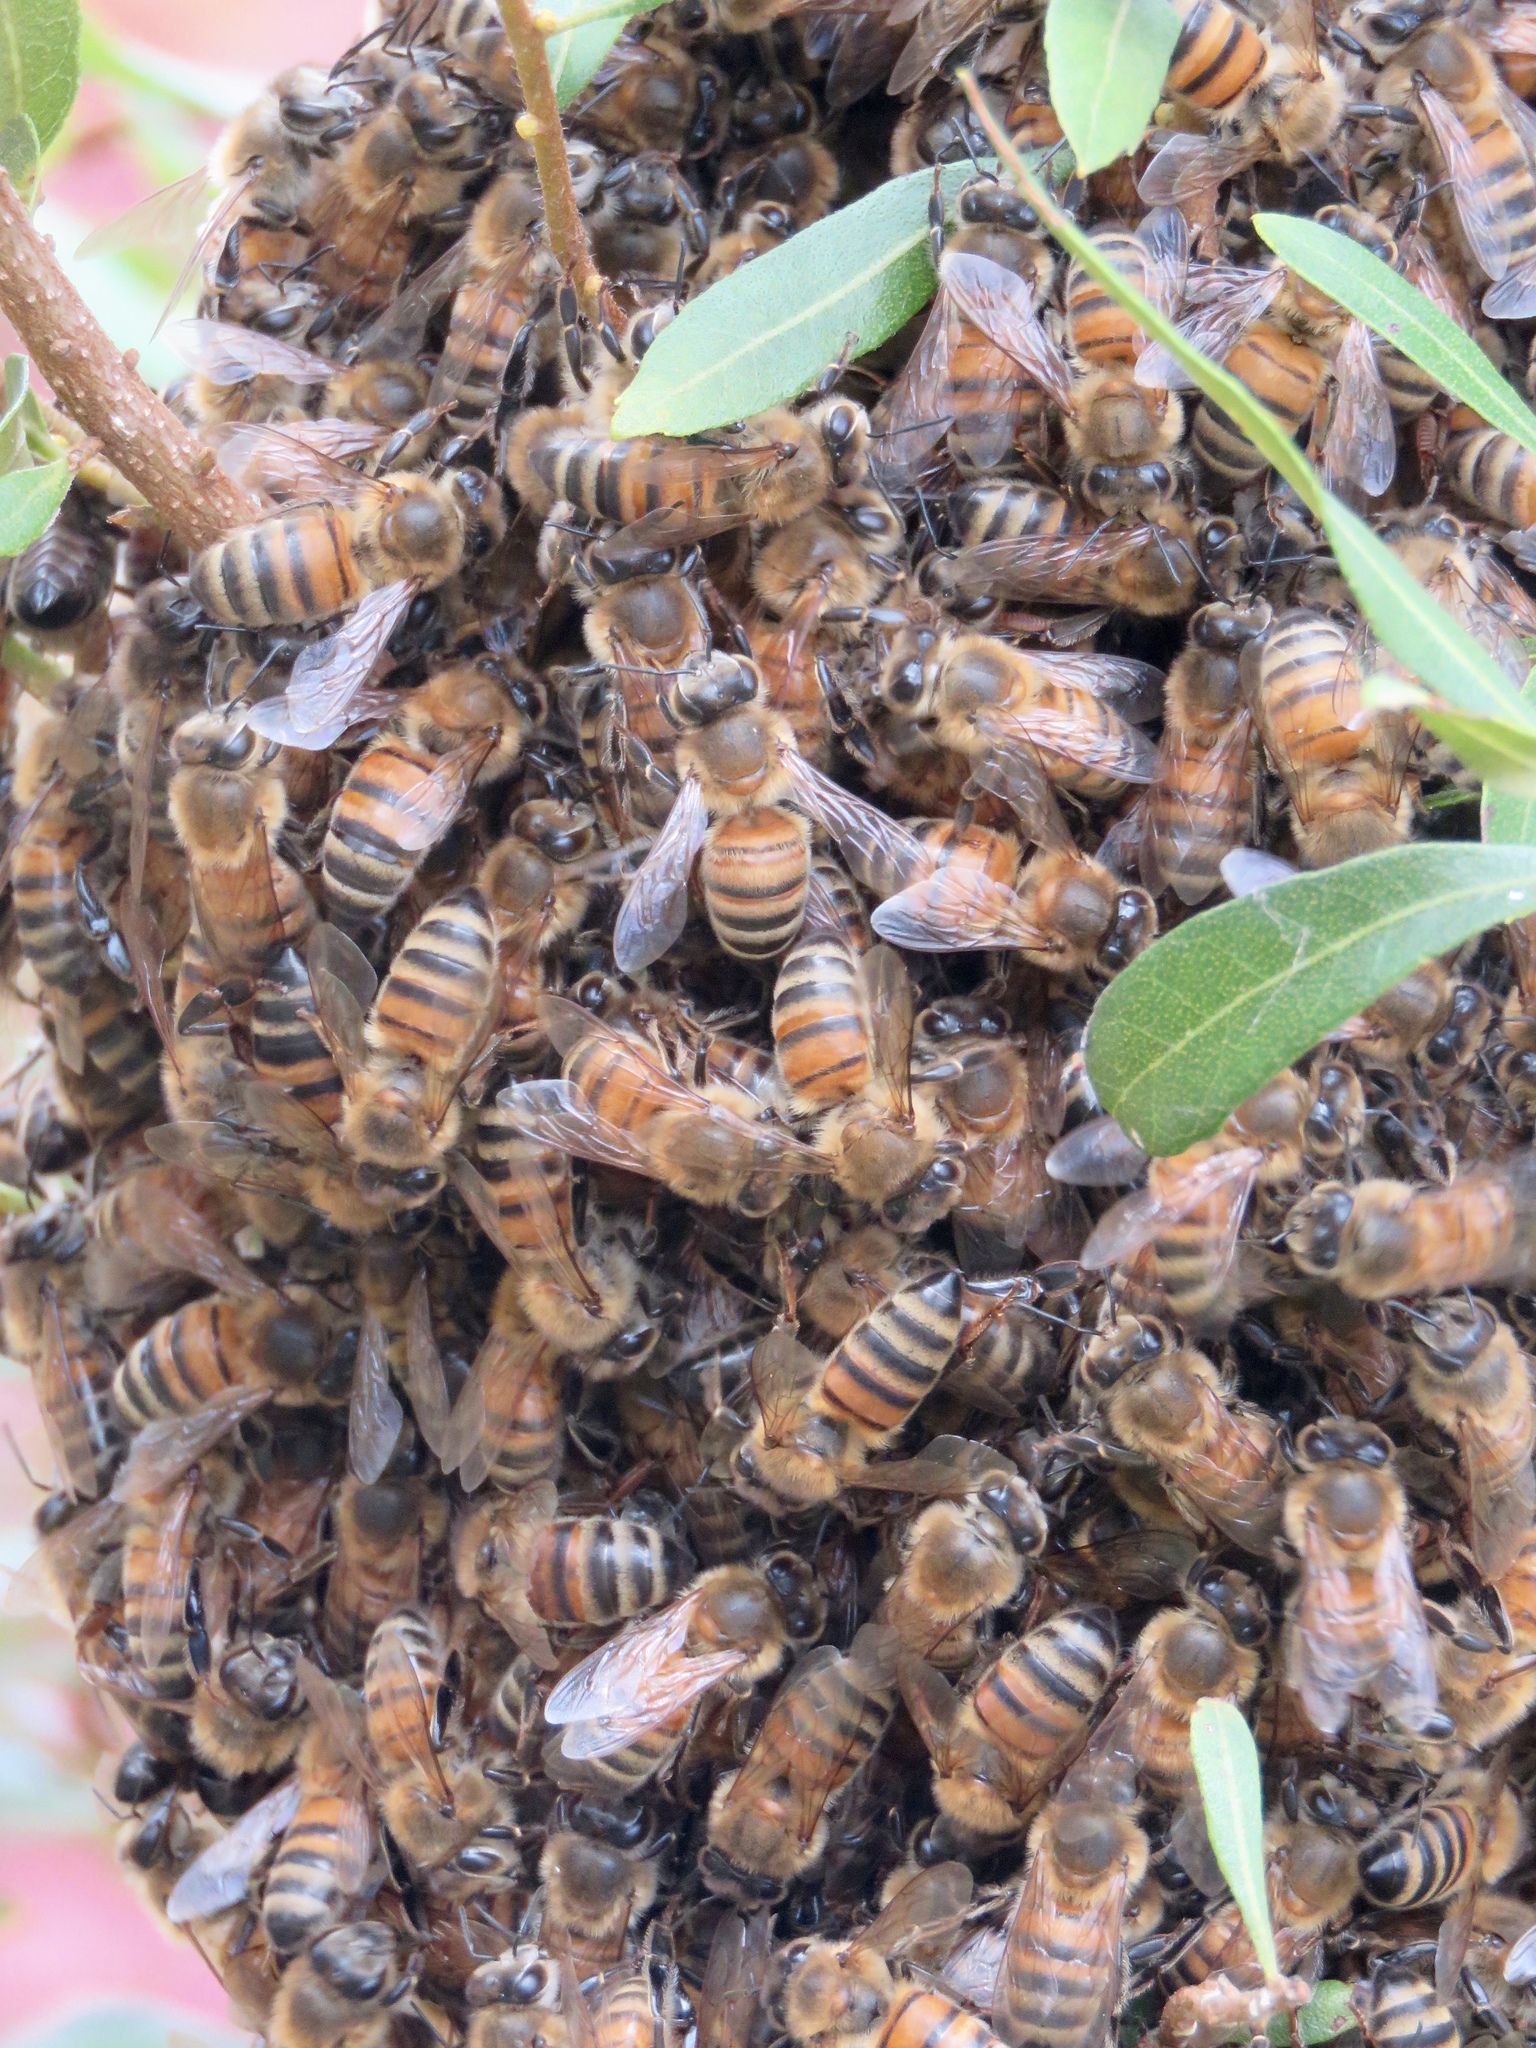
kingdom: Animalia
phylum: Arthropoda
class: Insecta
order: Hymenoptera
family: Apidae
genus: Apis
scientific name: Apis mellifera
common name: Honey bee
